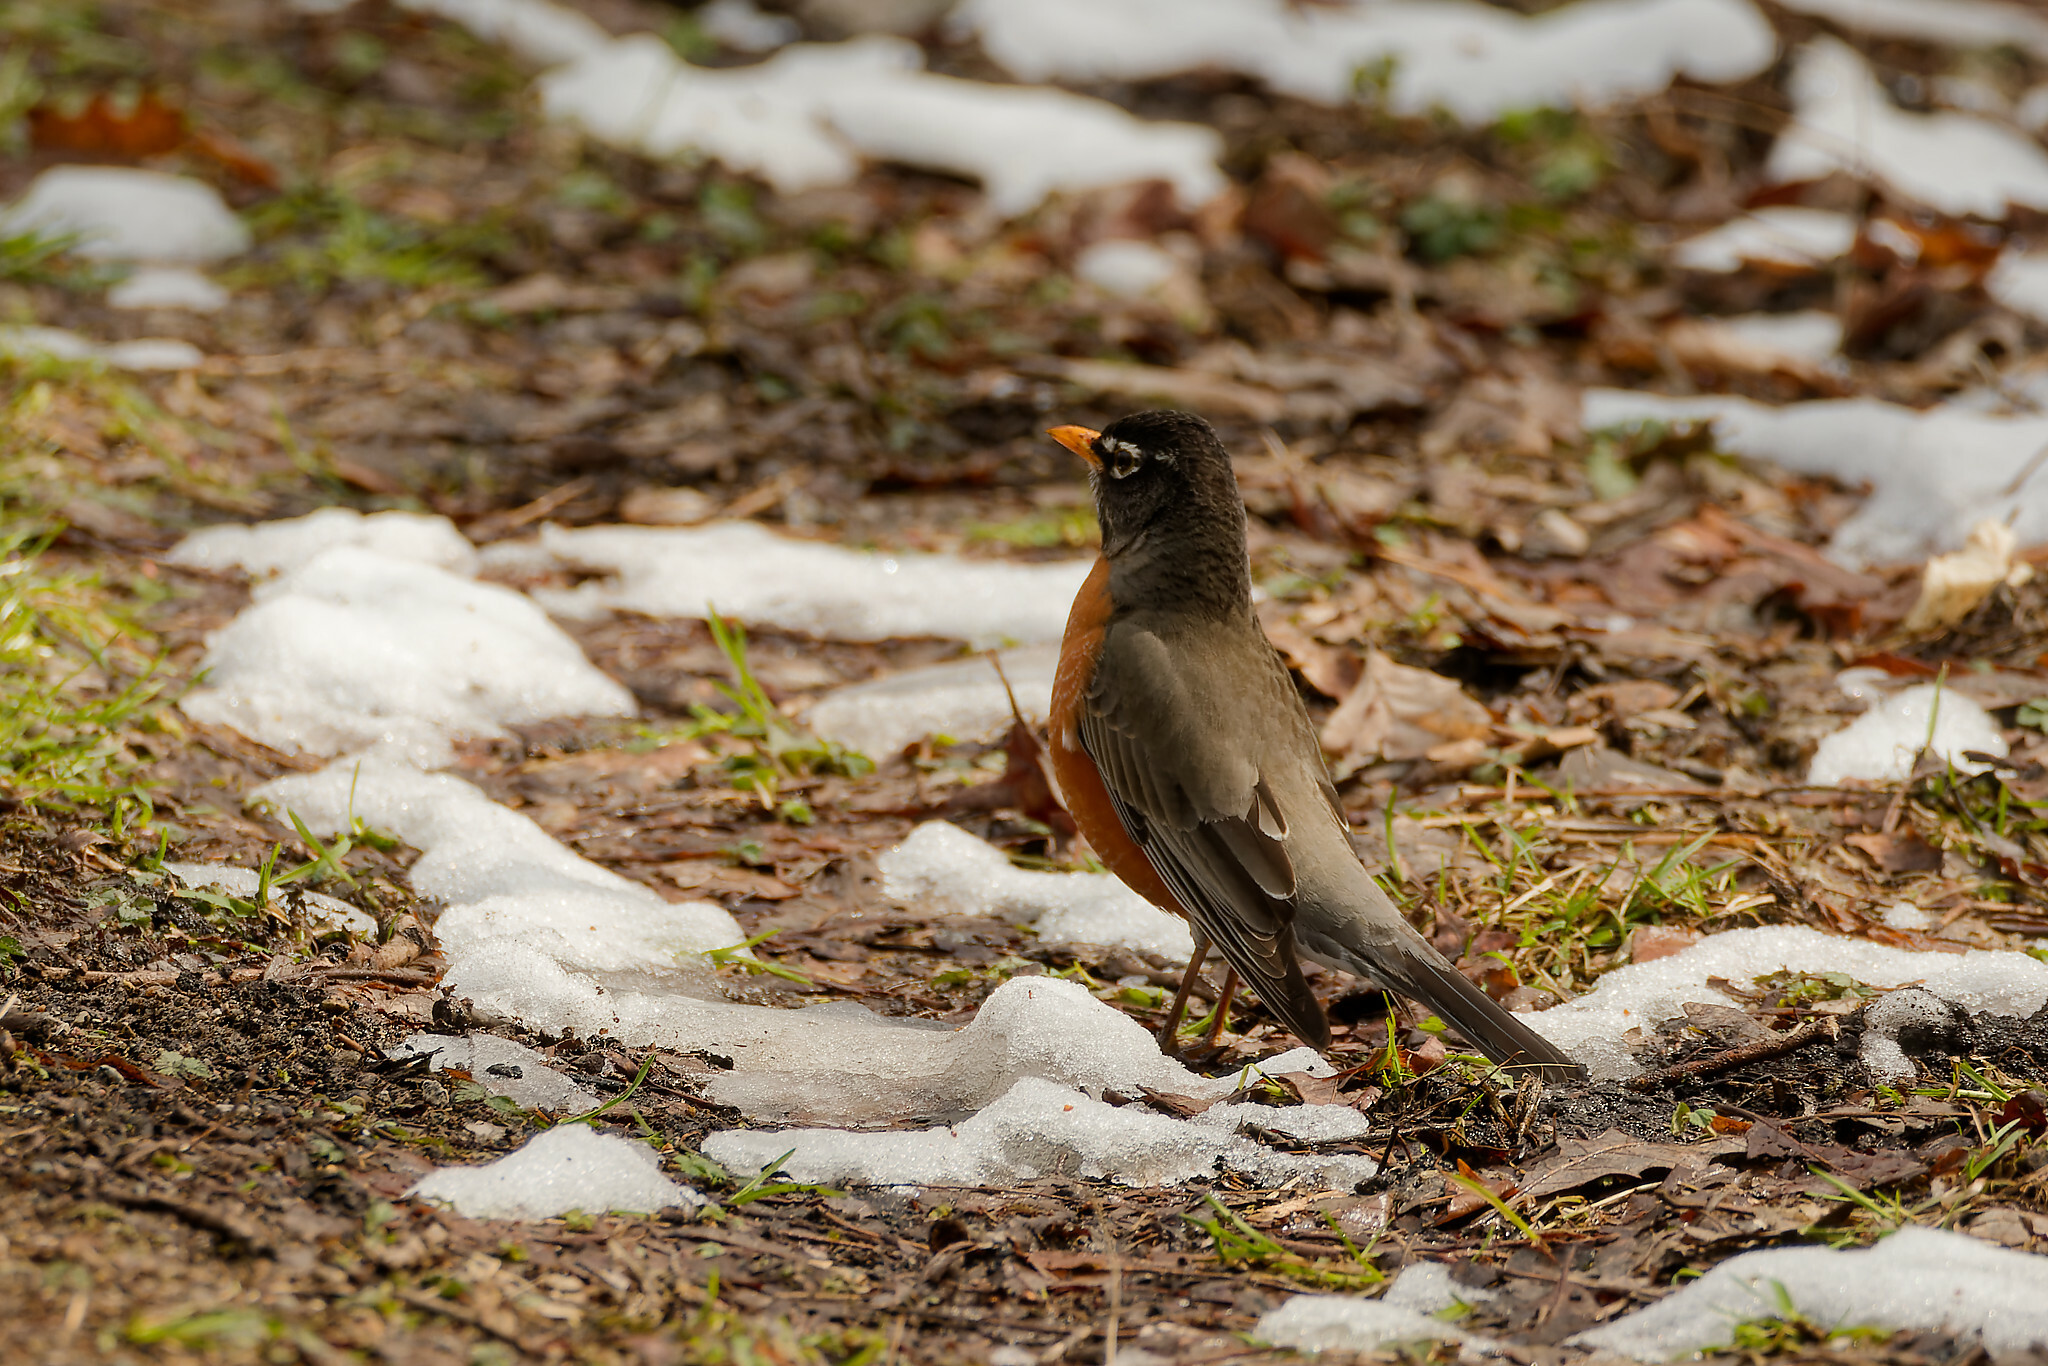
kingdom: Animalia
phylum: Chordata
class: Aves
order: Passeriformes
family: Turdidae
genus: Turdus
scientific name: Turdus migratorius
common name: American robin
